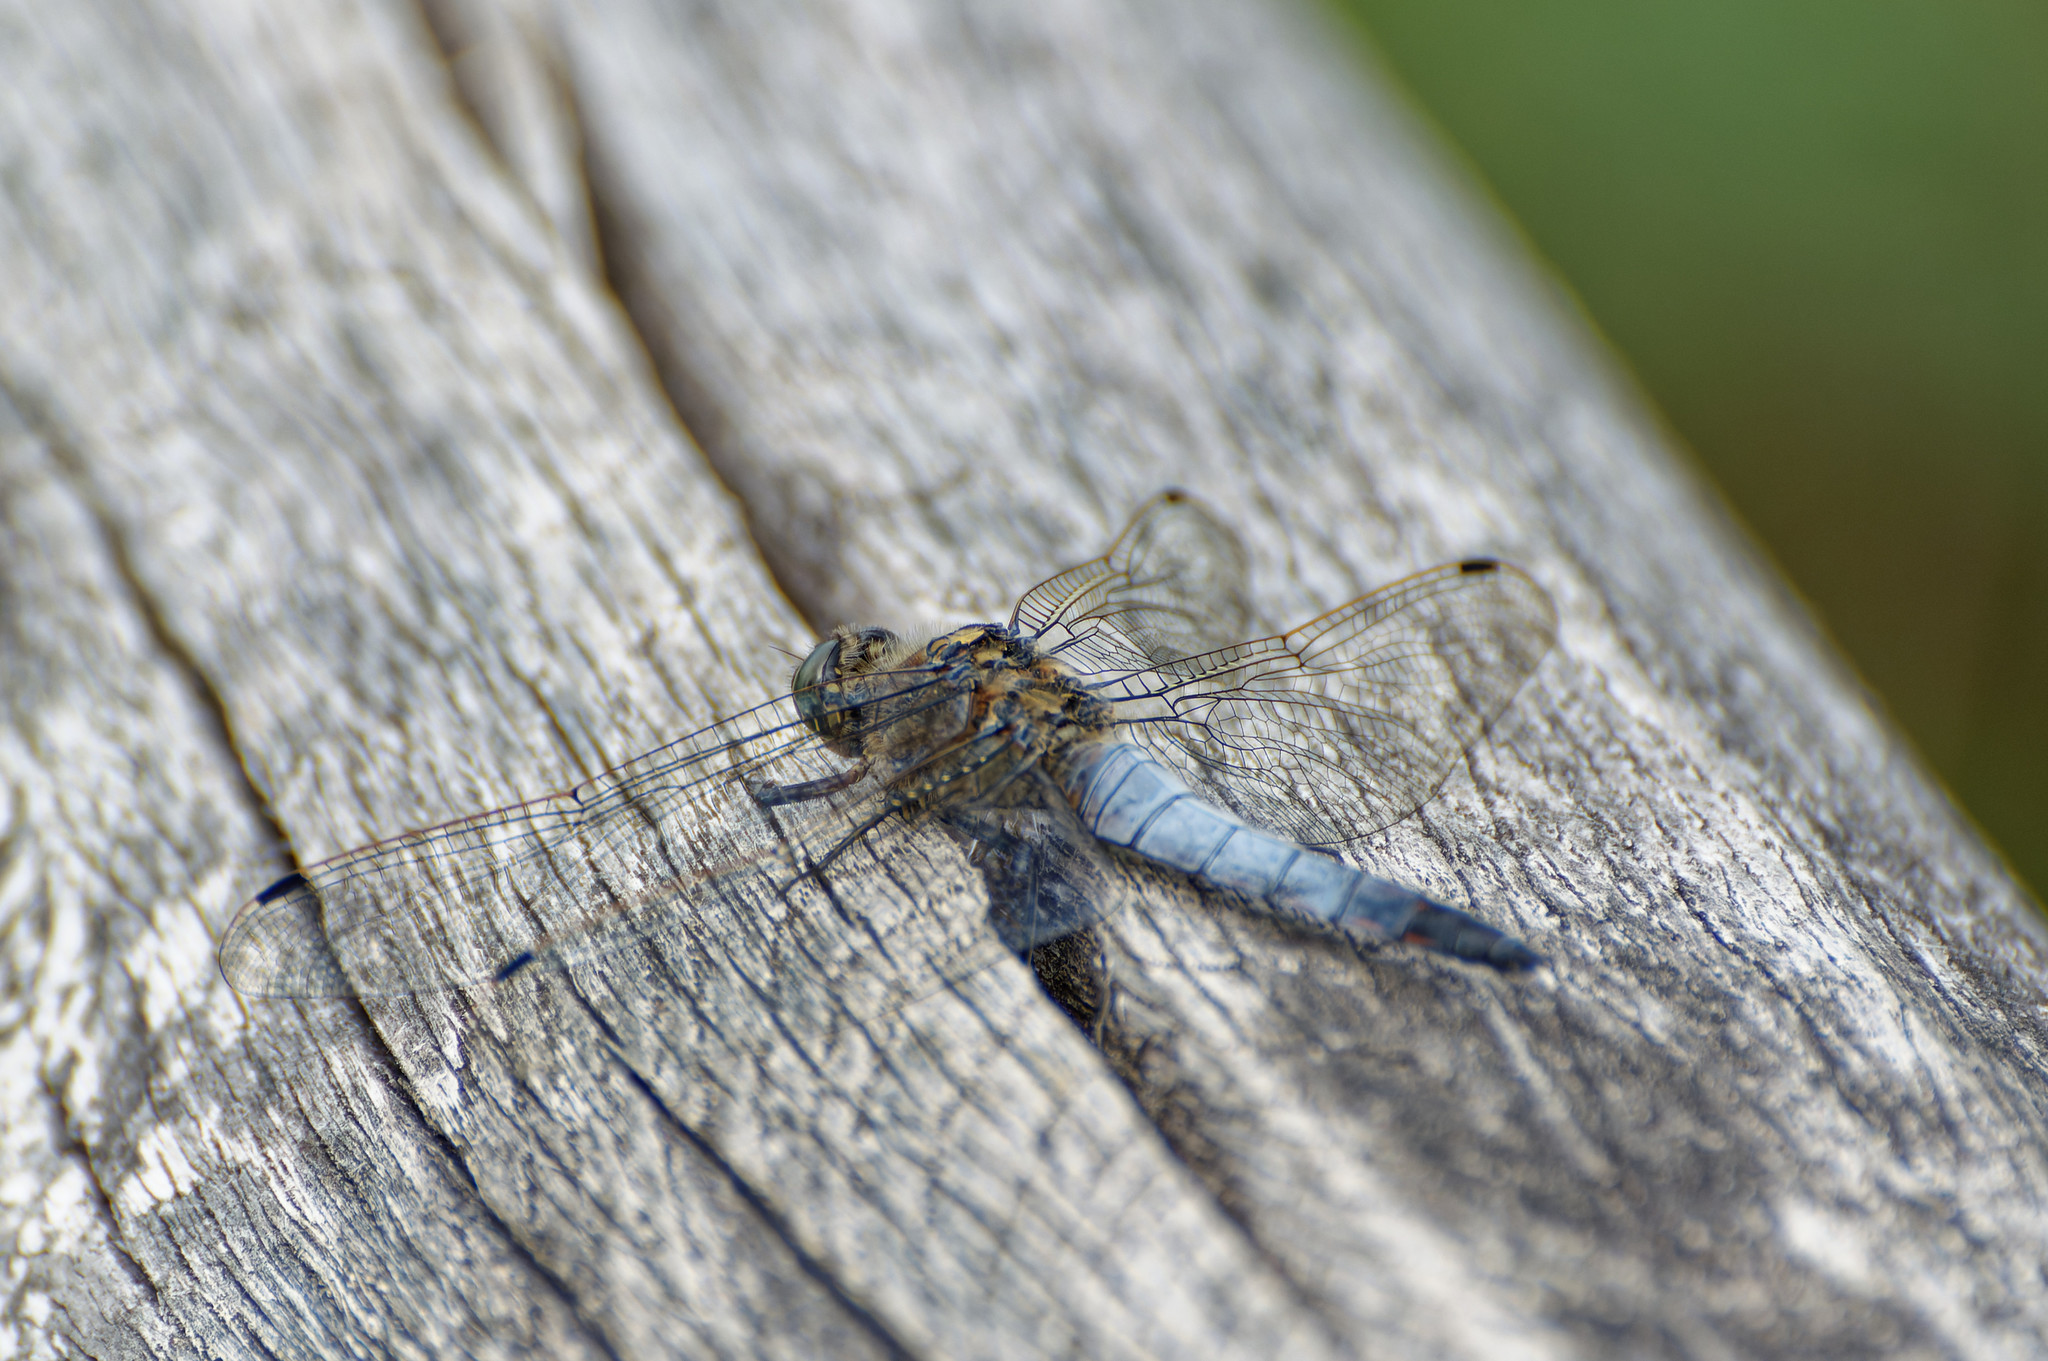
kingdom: Animalia
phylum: Arthropoda
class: Insecta
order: Odonata
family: Libellulidae
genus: Orthetrum
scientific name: Orthetrum cancellatum
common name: Black-tailed skimmer
